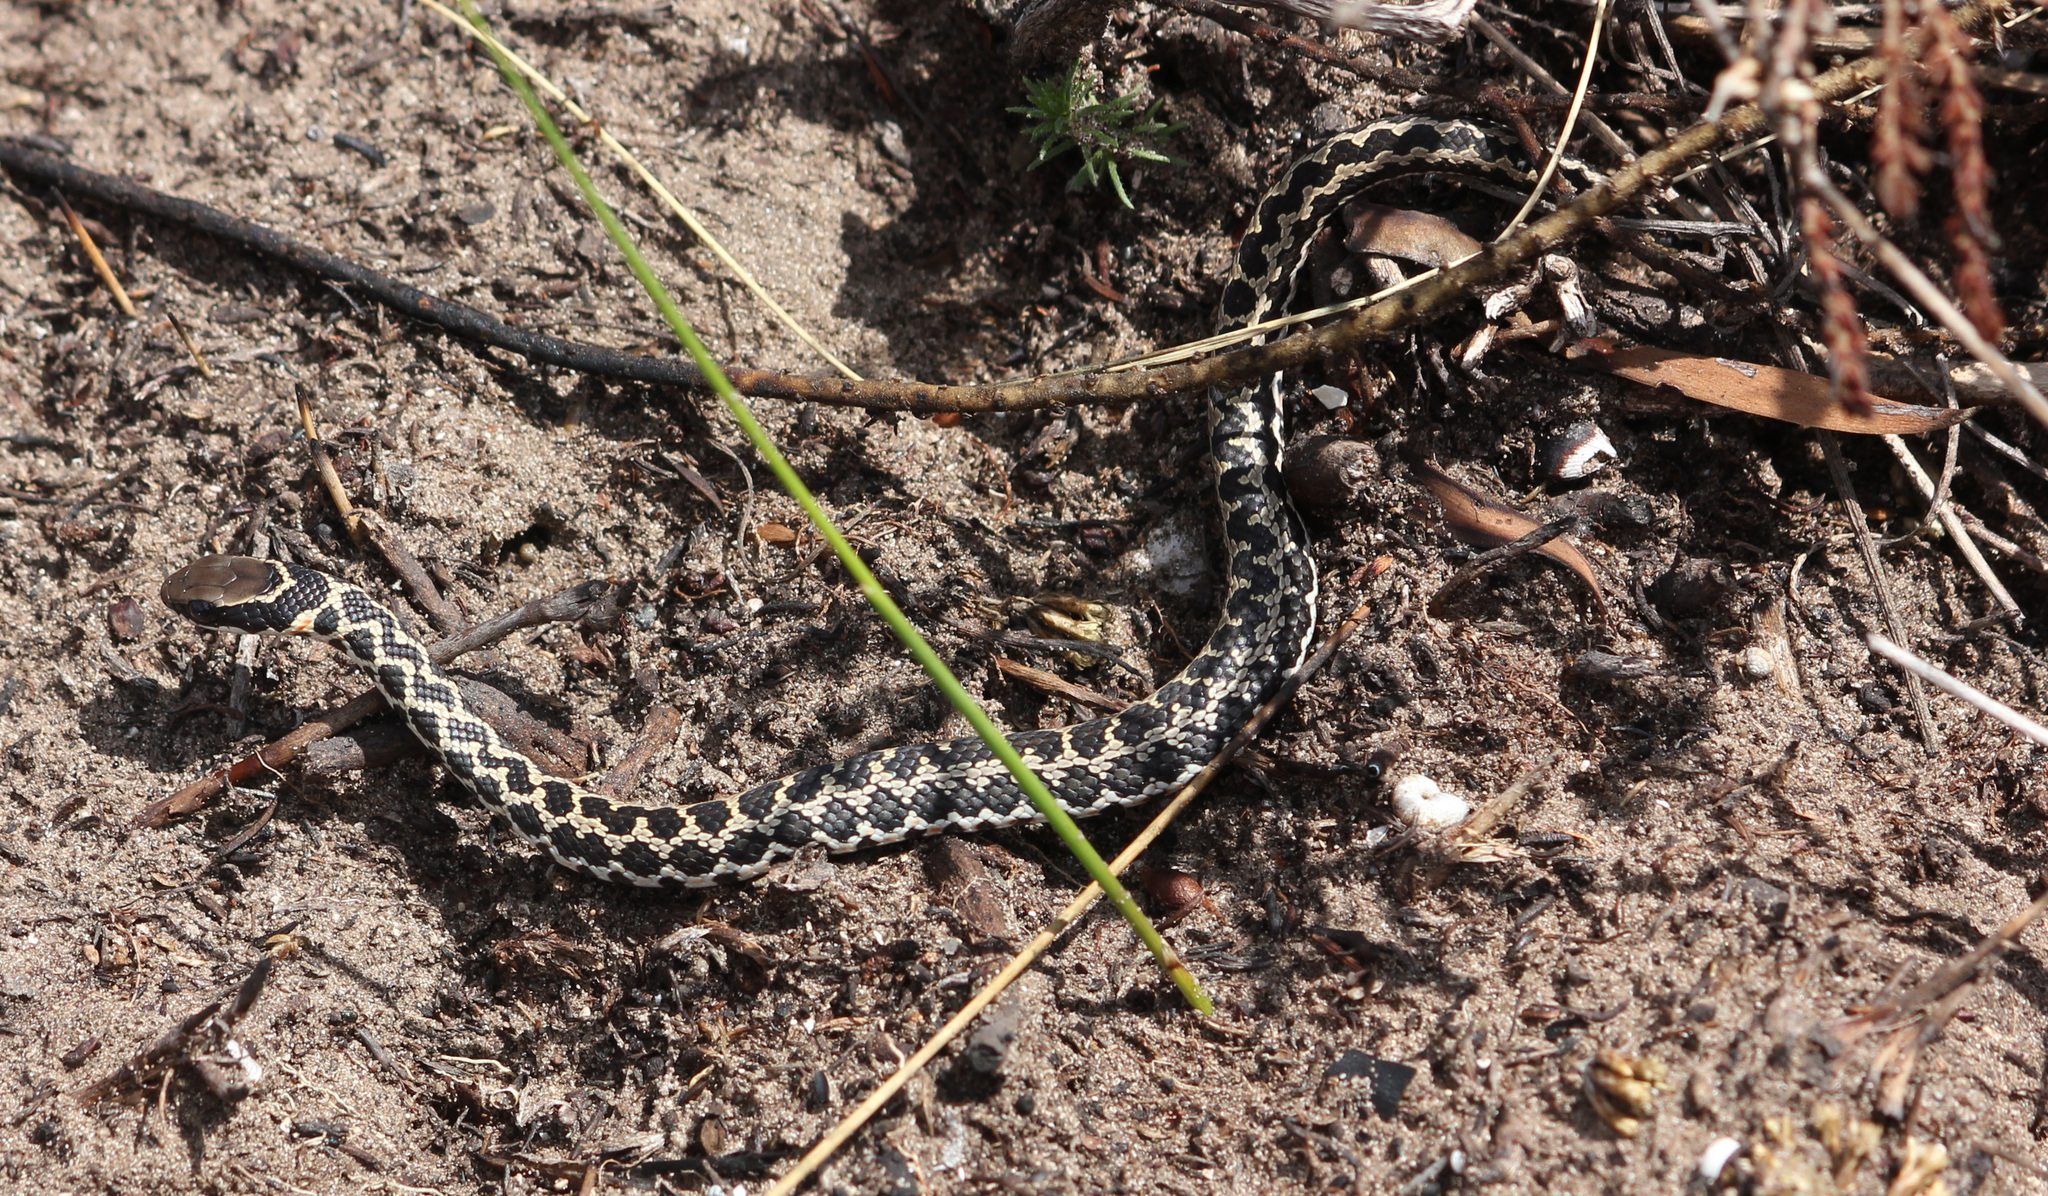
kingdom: Animalia
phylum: Chordata
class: Squamata
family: Psammophiidae
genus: Psammophylax
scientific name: Psammophylax rhombeatus
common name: Rhombic skaapsteker
